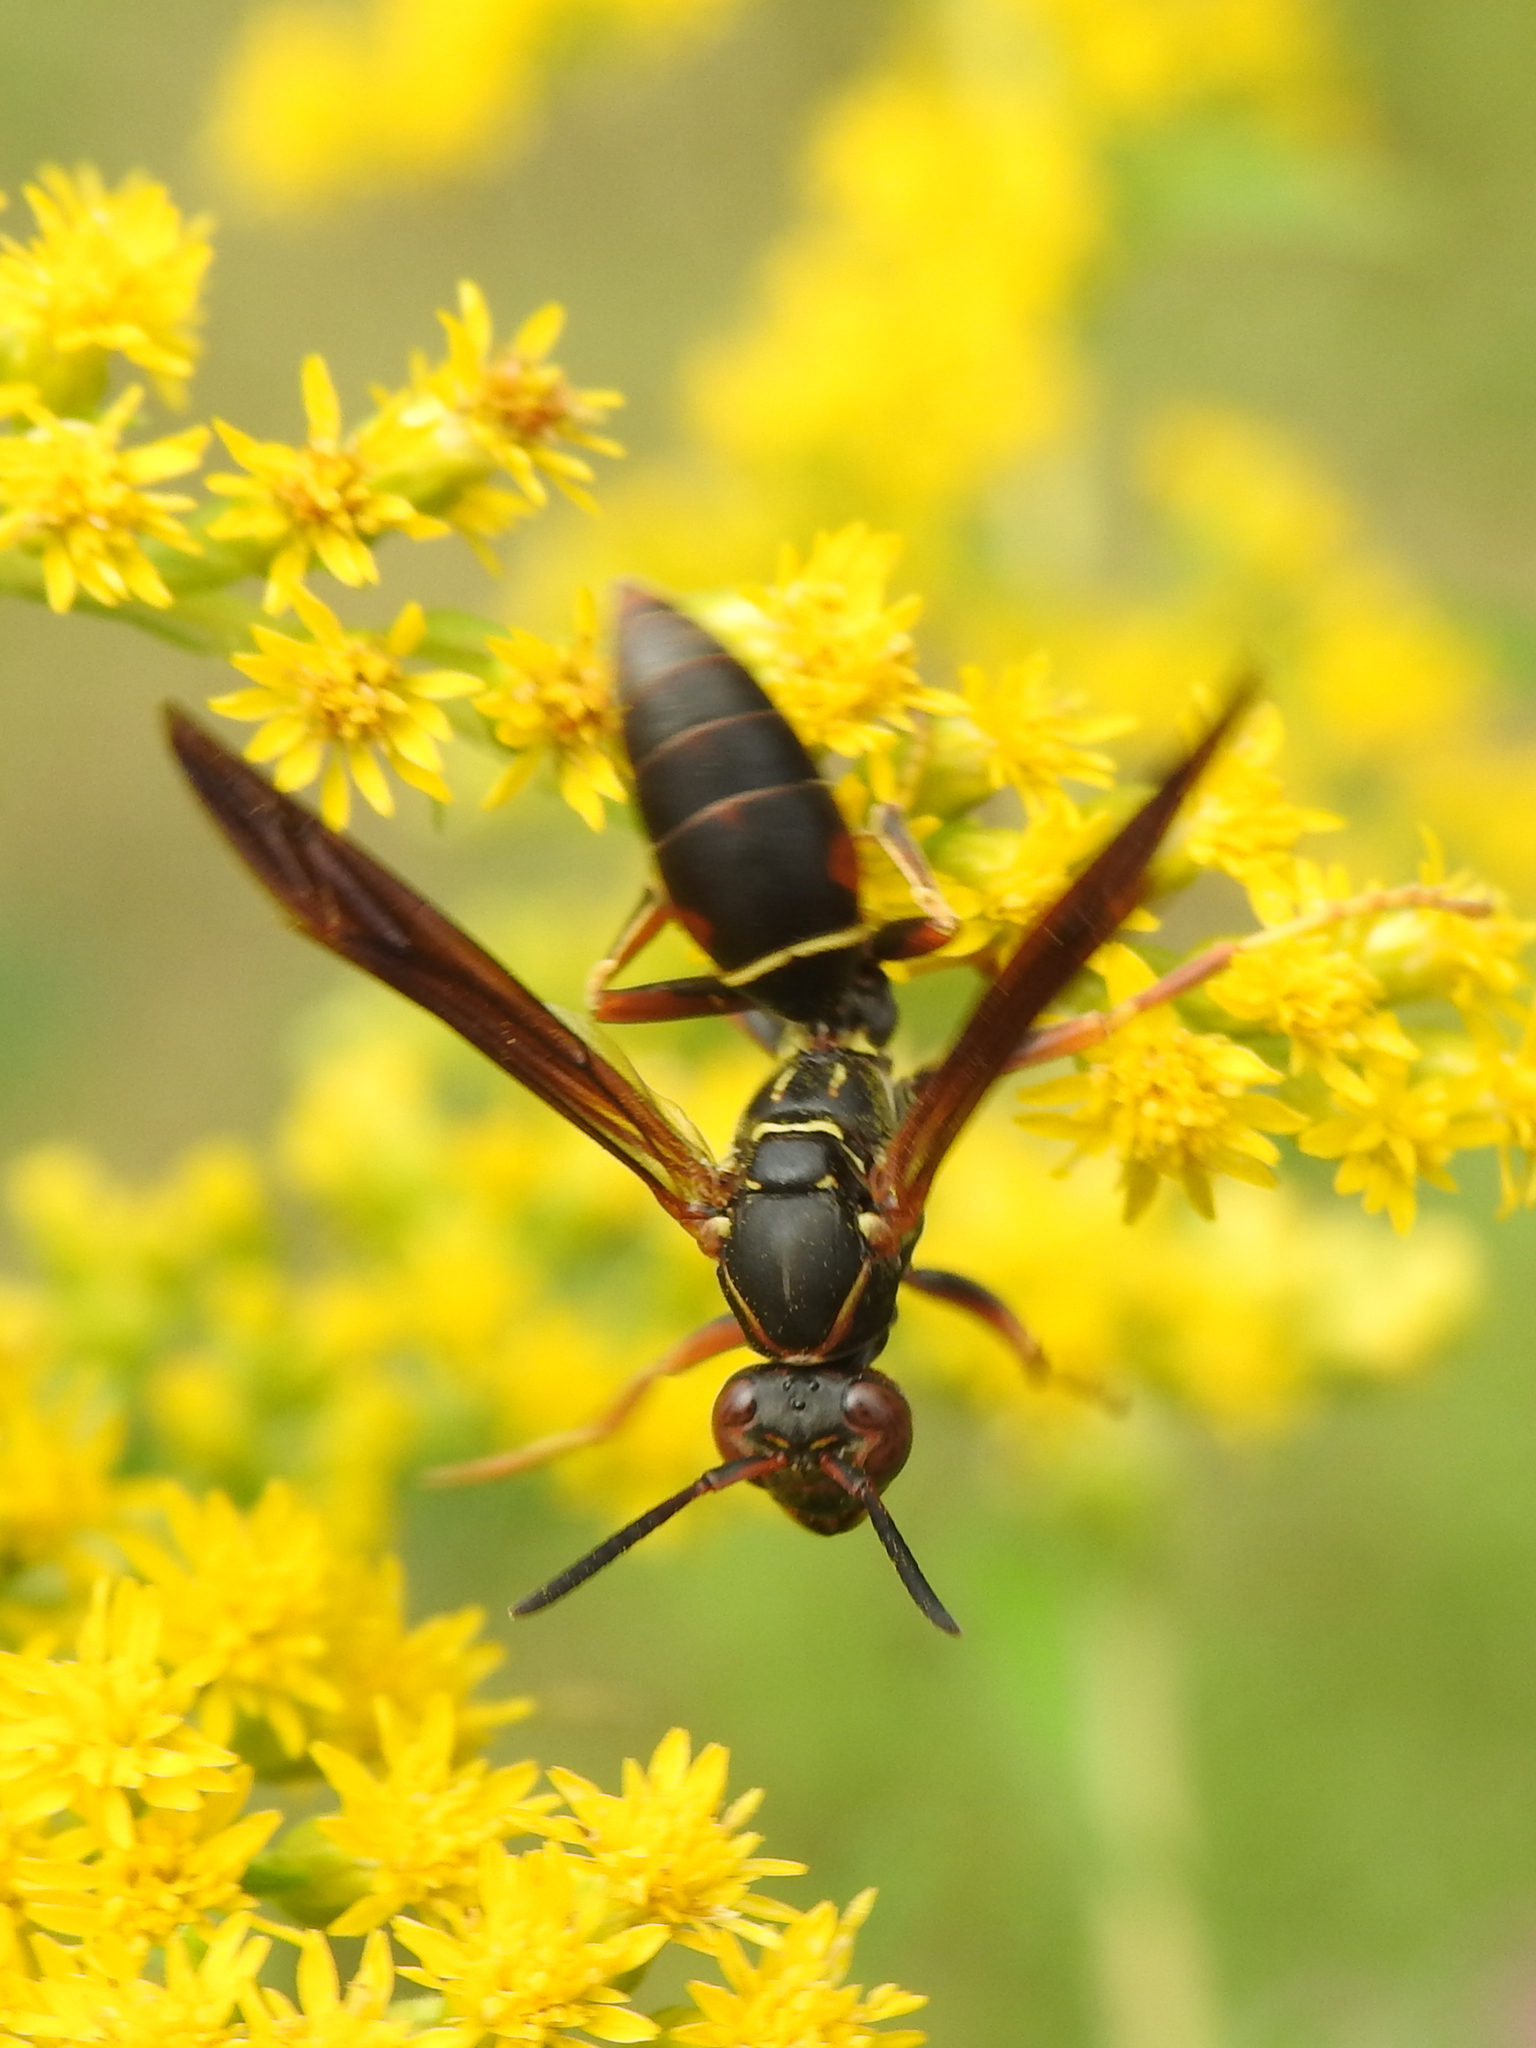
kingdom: Animalia
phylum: Arthropoda
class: Insecta
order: Hymenoptera
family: Eumenidae
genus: Polistes
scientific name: Polistes fuscatus
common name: Dark paper wasp
